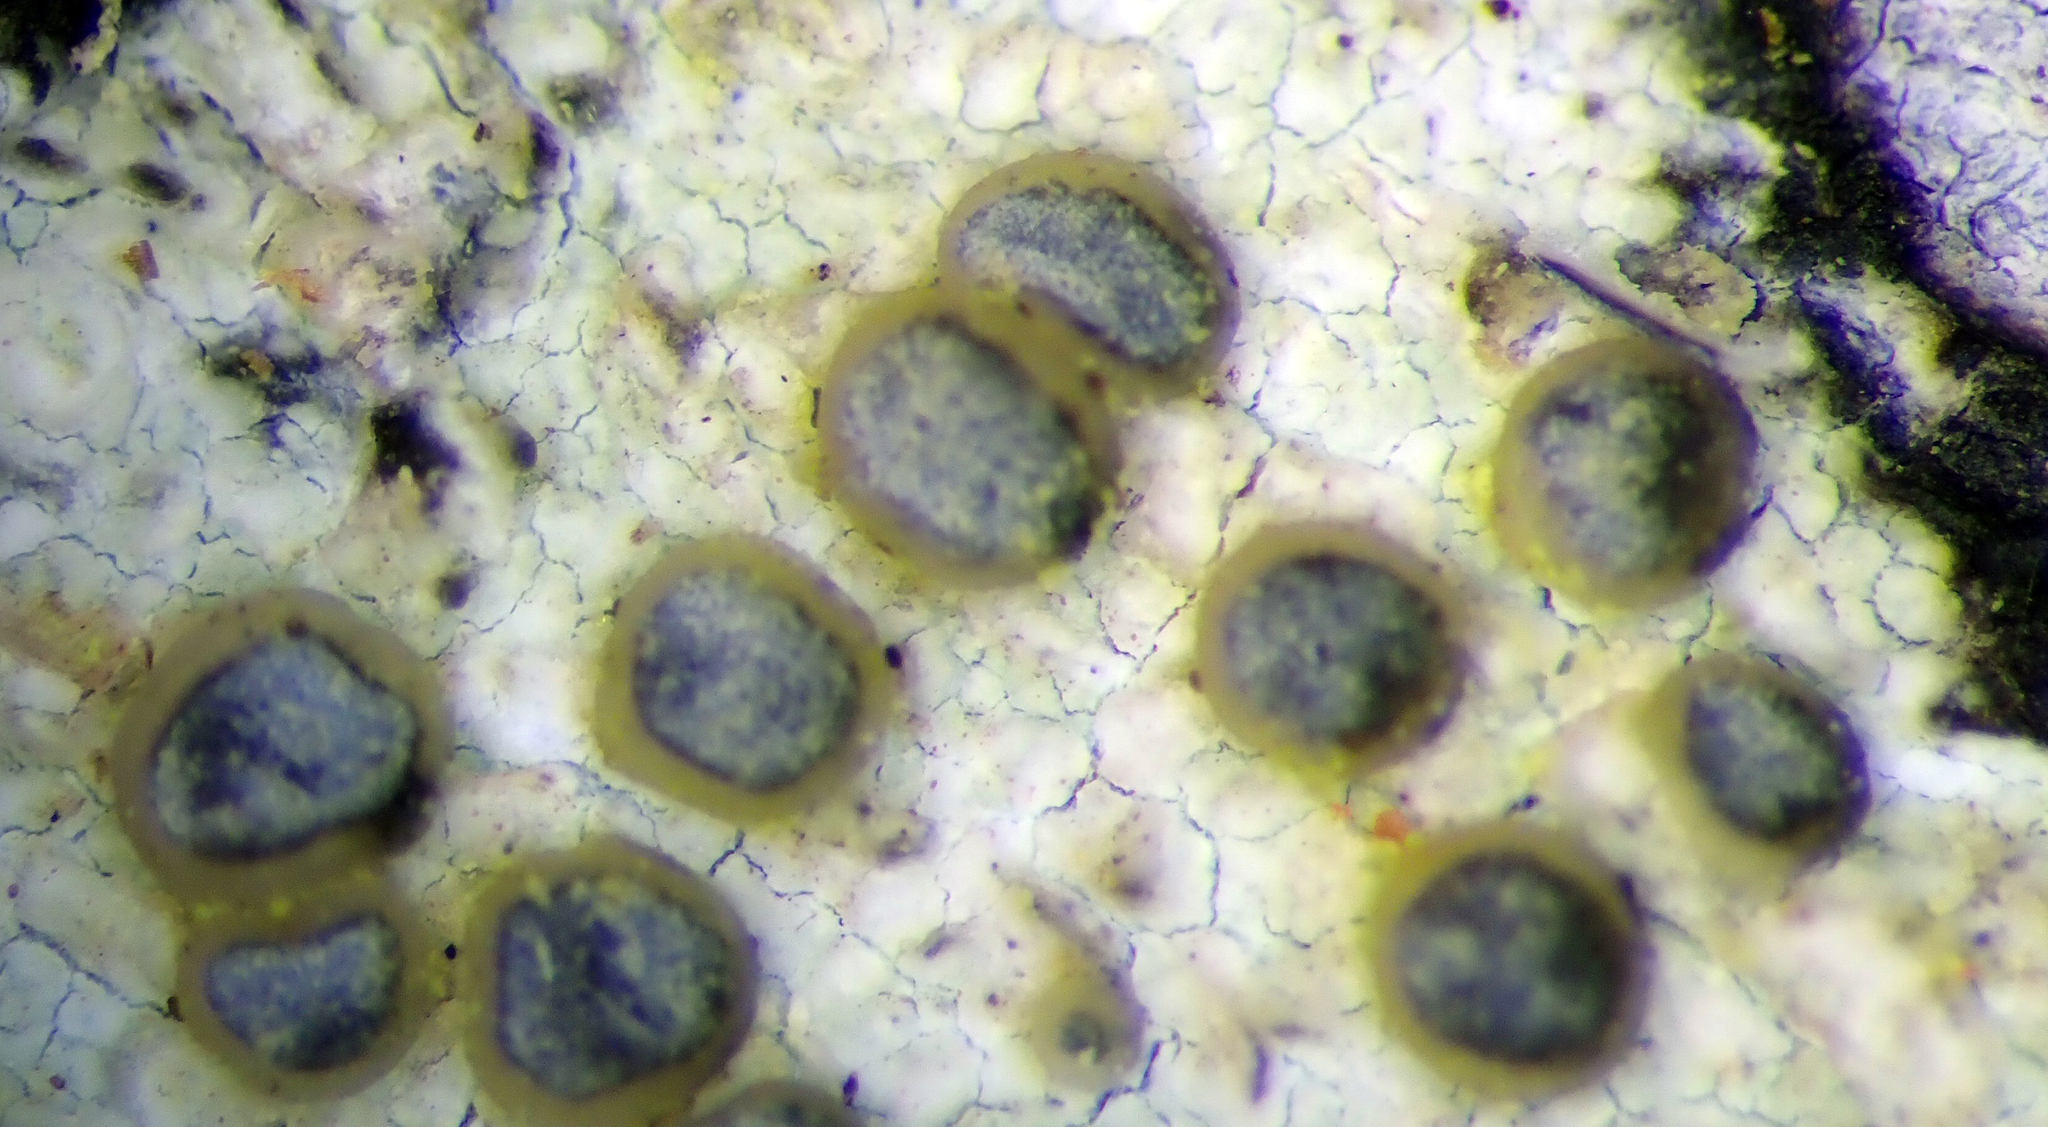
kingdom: Fungi
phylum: Ascomycota
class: Lecanoromycetes
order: Lecanorales
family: Ramalinaceae
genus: Catillochroma
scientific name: Catillochroma melanotropum
